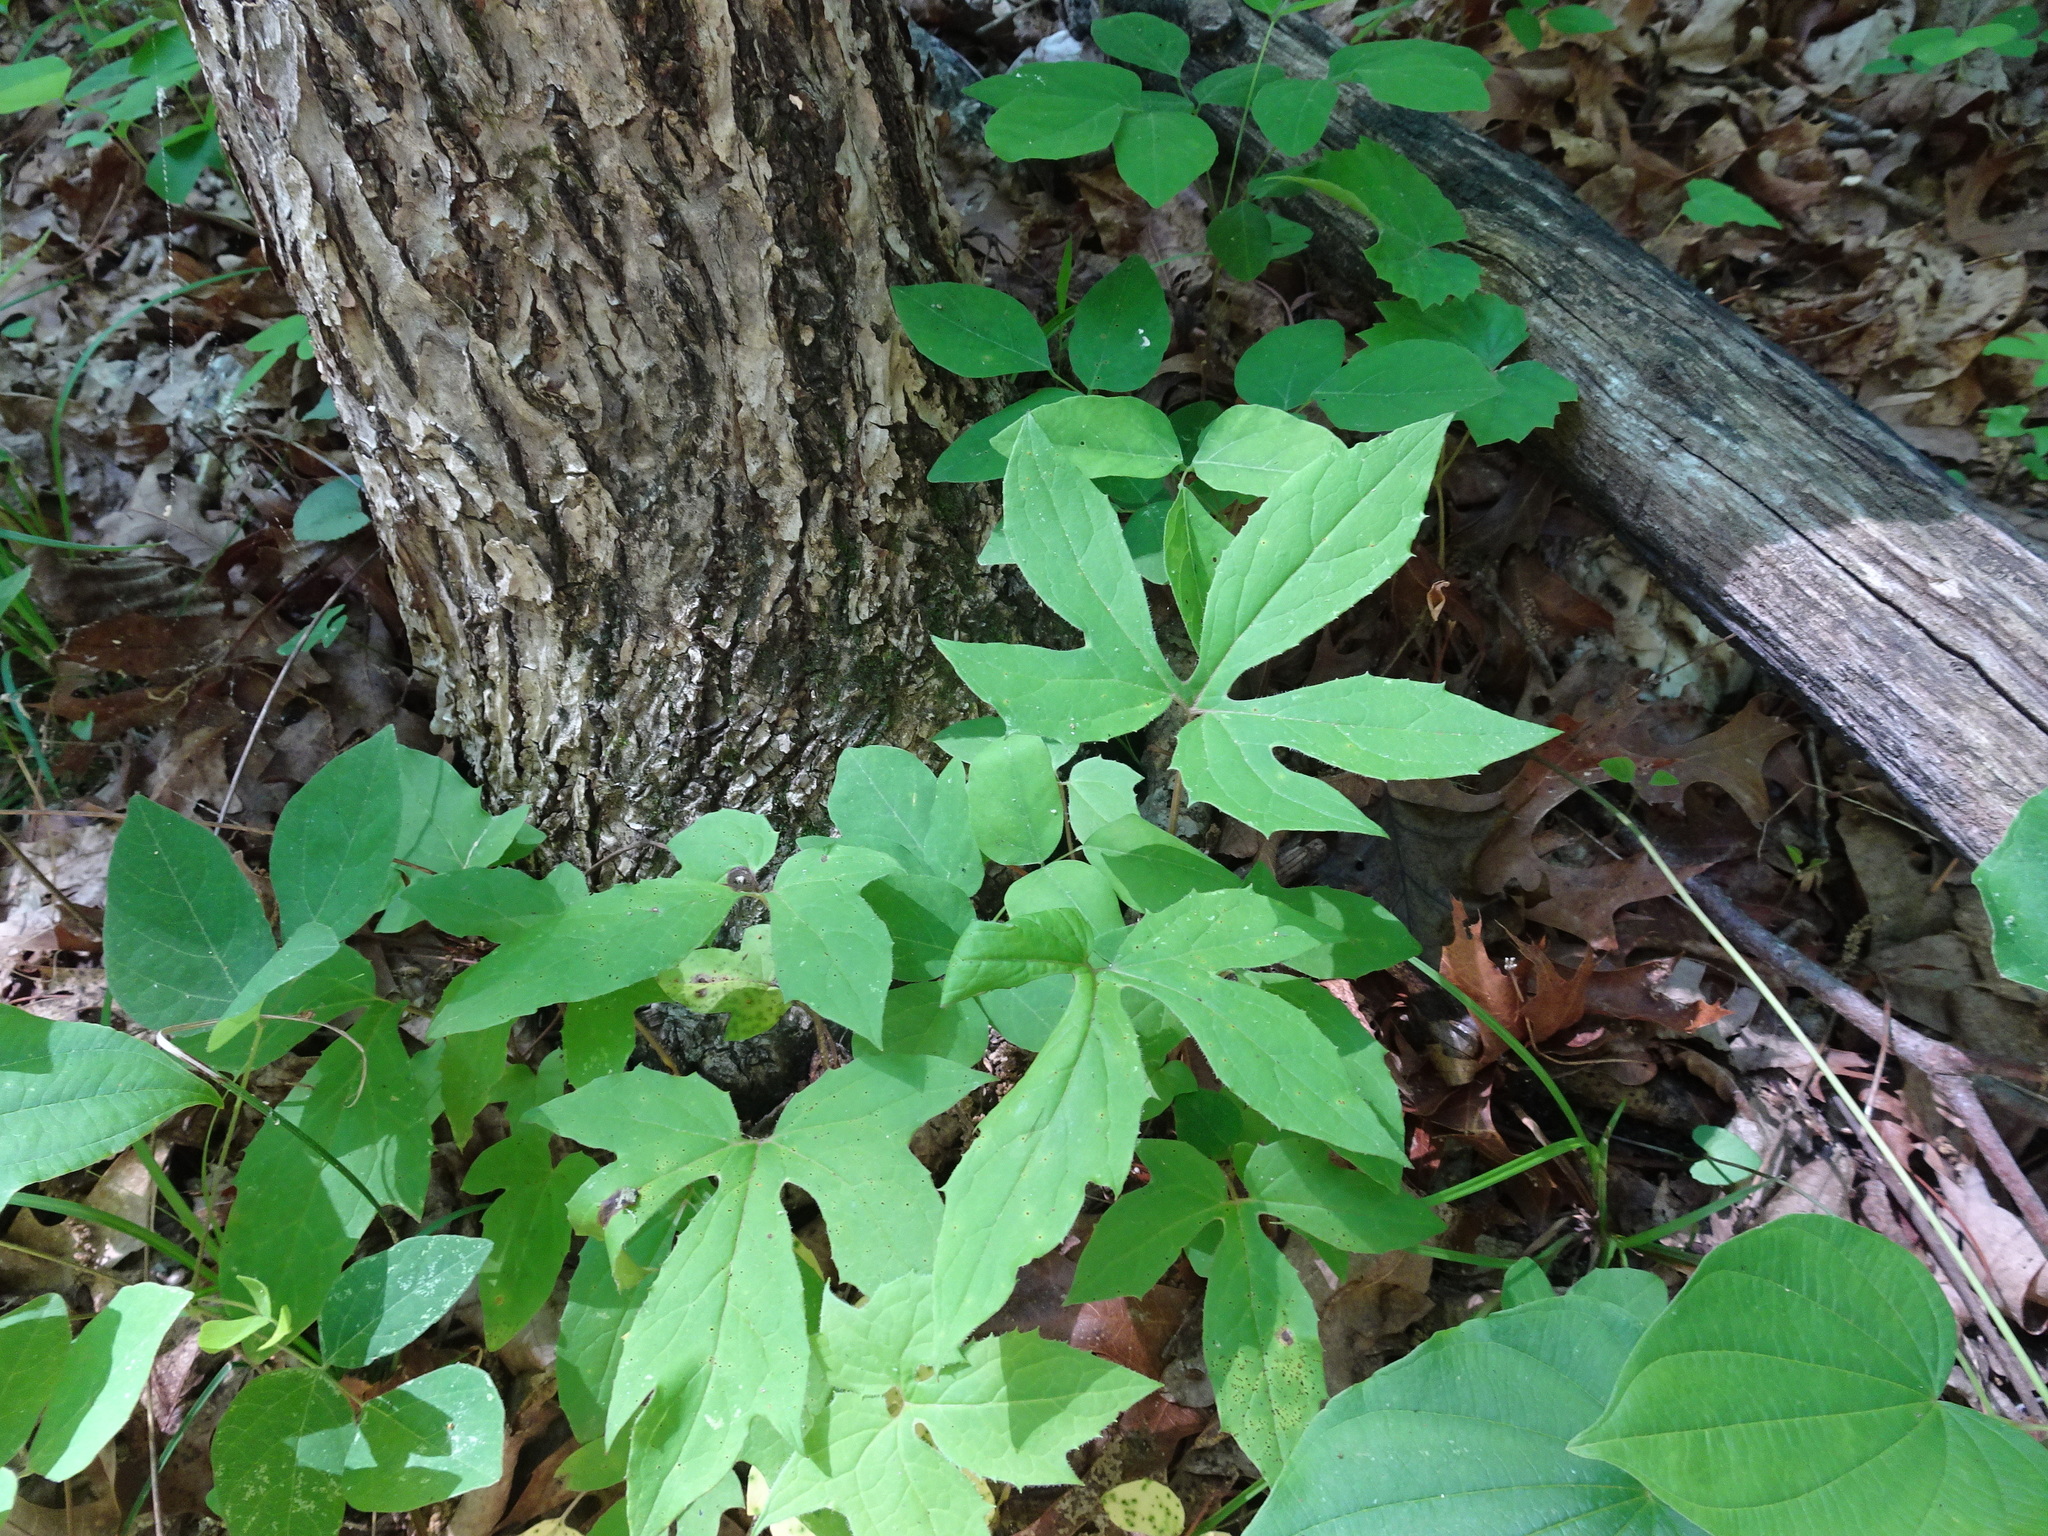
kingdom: Plantae
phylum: Tracheophyta
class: Magnoliopsida
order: Asterales
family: Asteraceae
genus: Nabalus
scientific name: Nabalus altissima
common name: Tall rattlesnakeroot
